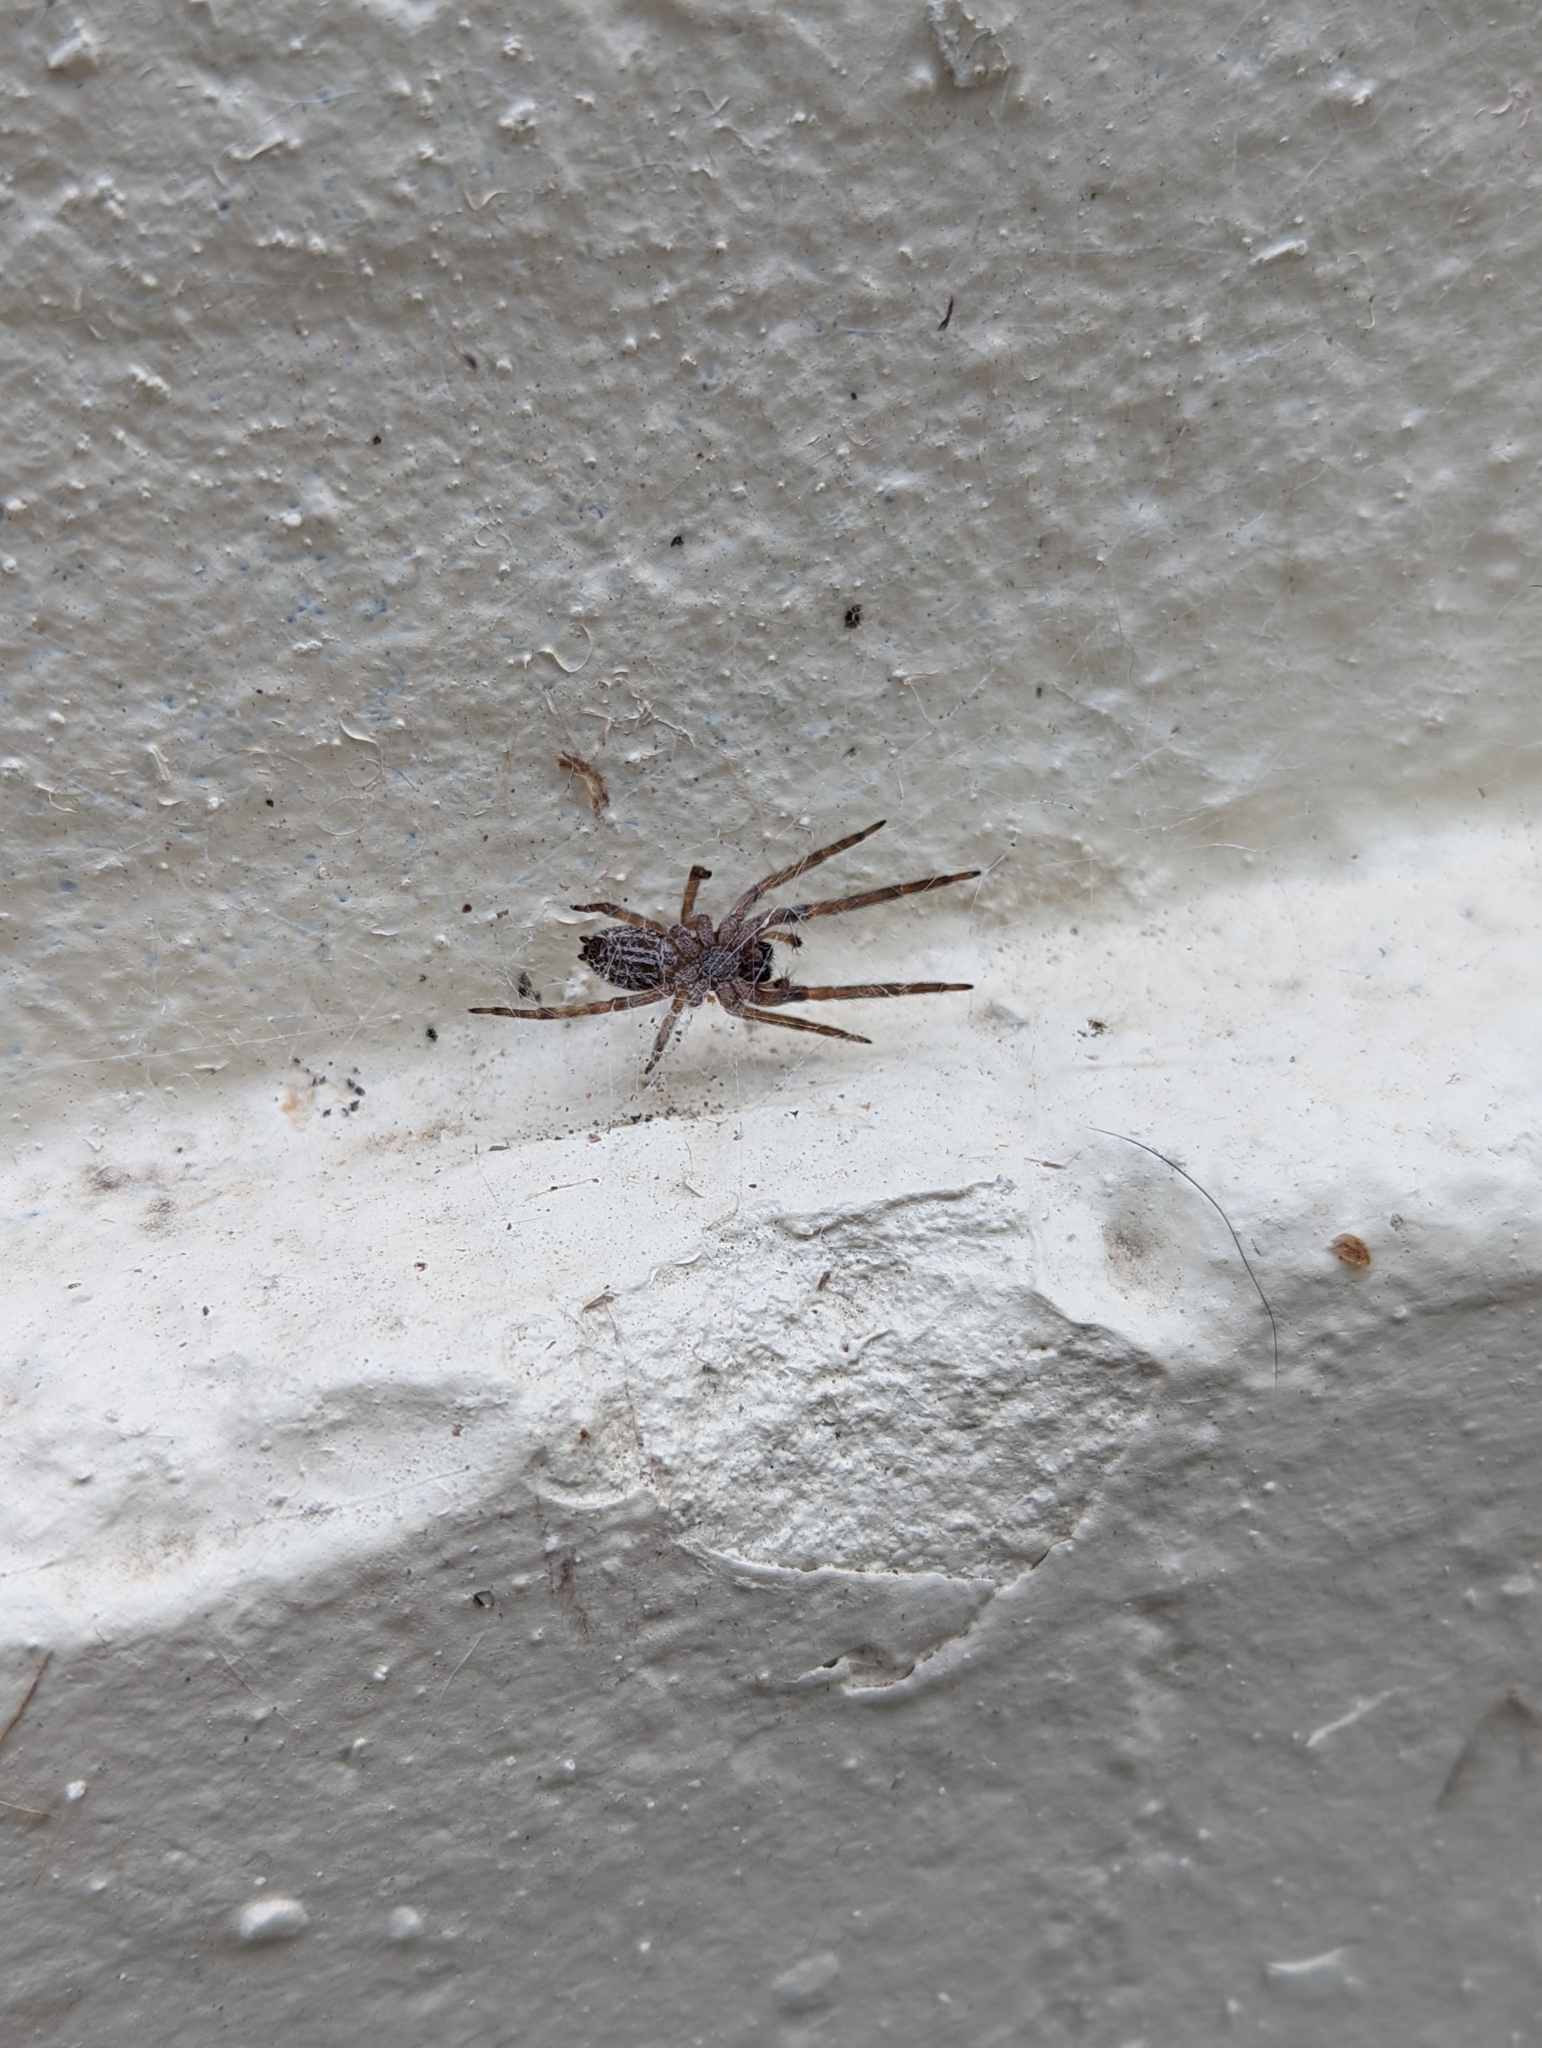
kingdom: Animalia
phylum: Arthropoda
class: Arachnida
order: Araneae
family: Desidae
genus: Badumna
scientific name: Badumna longinqua
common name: Gray house spider
